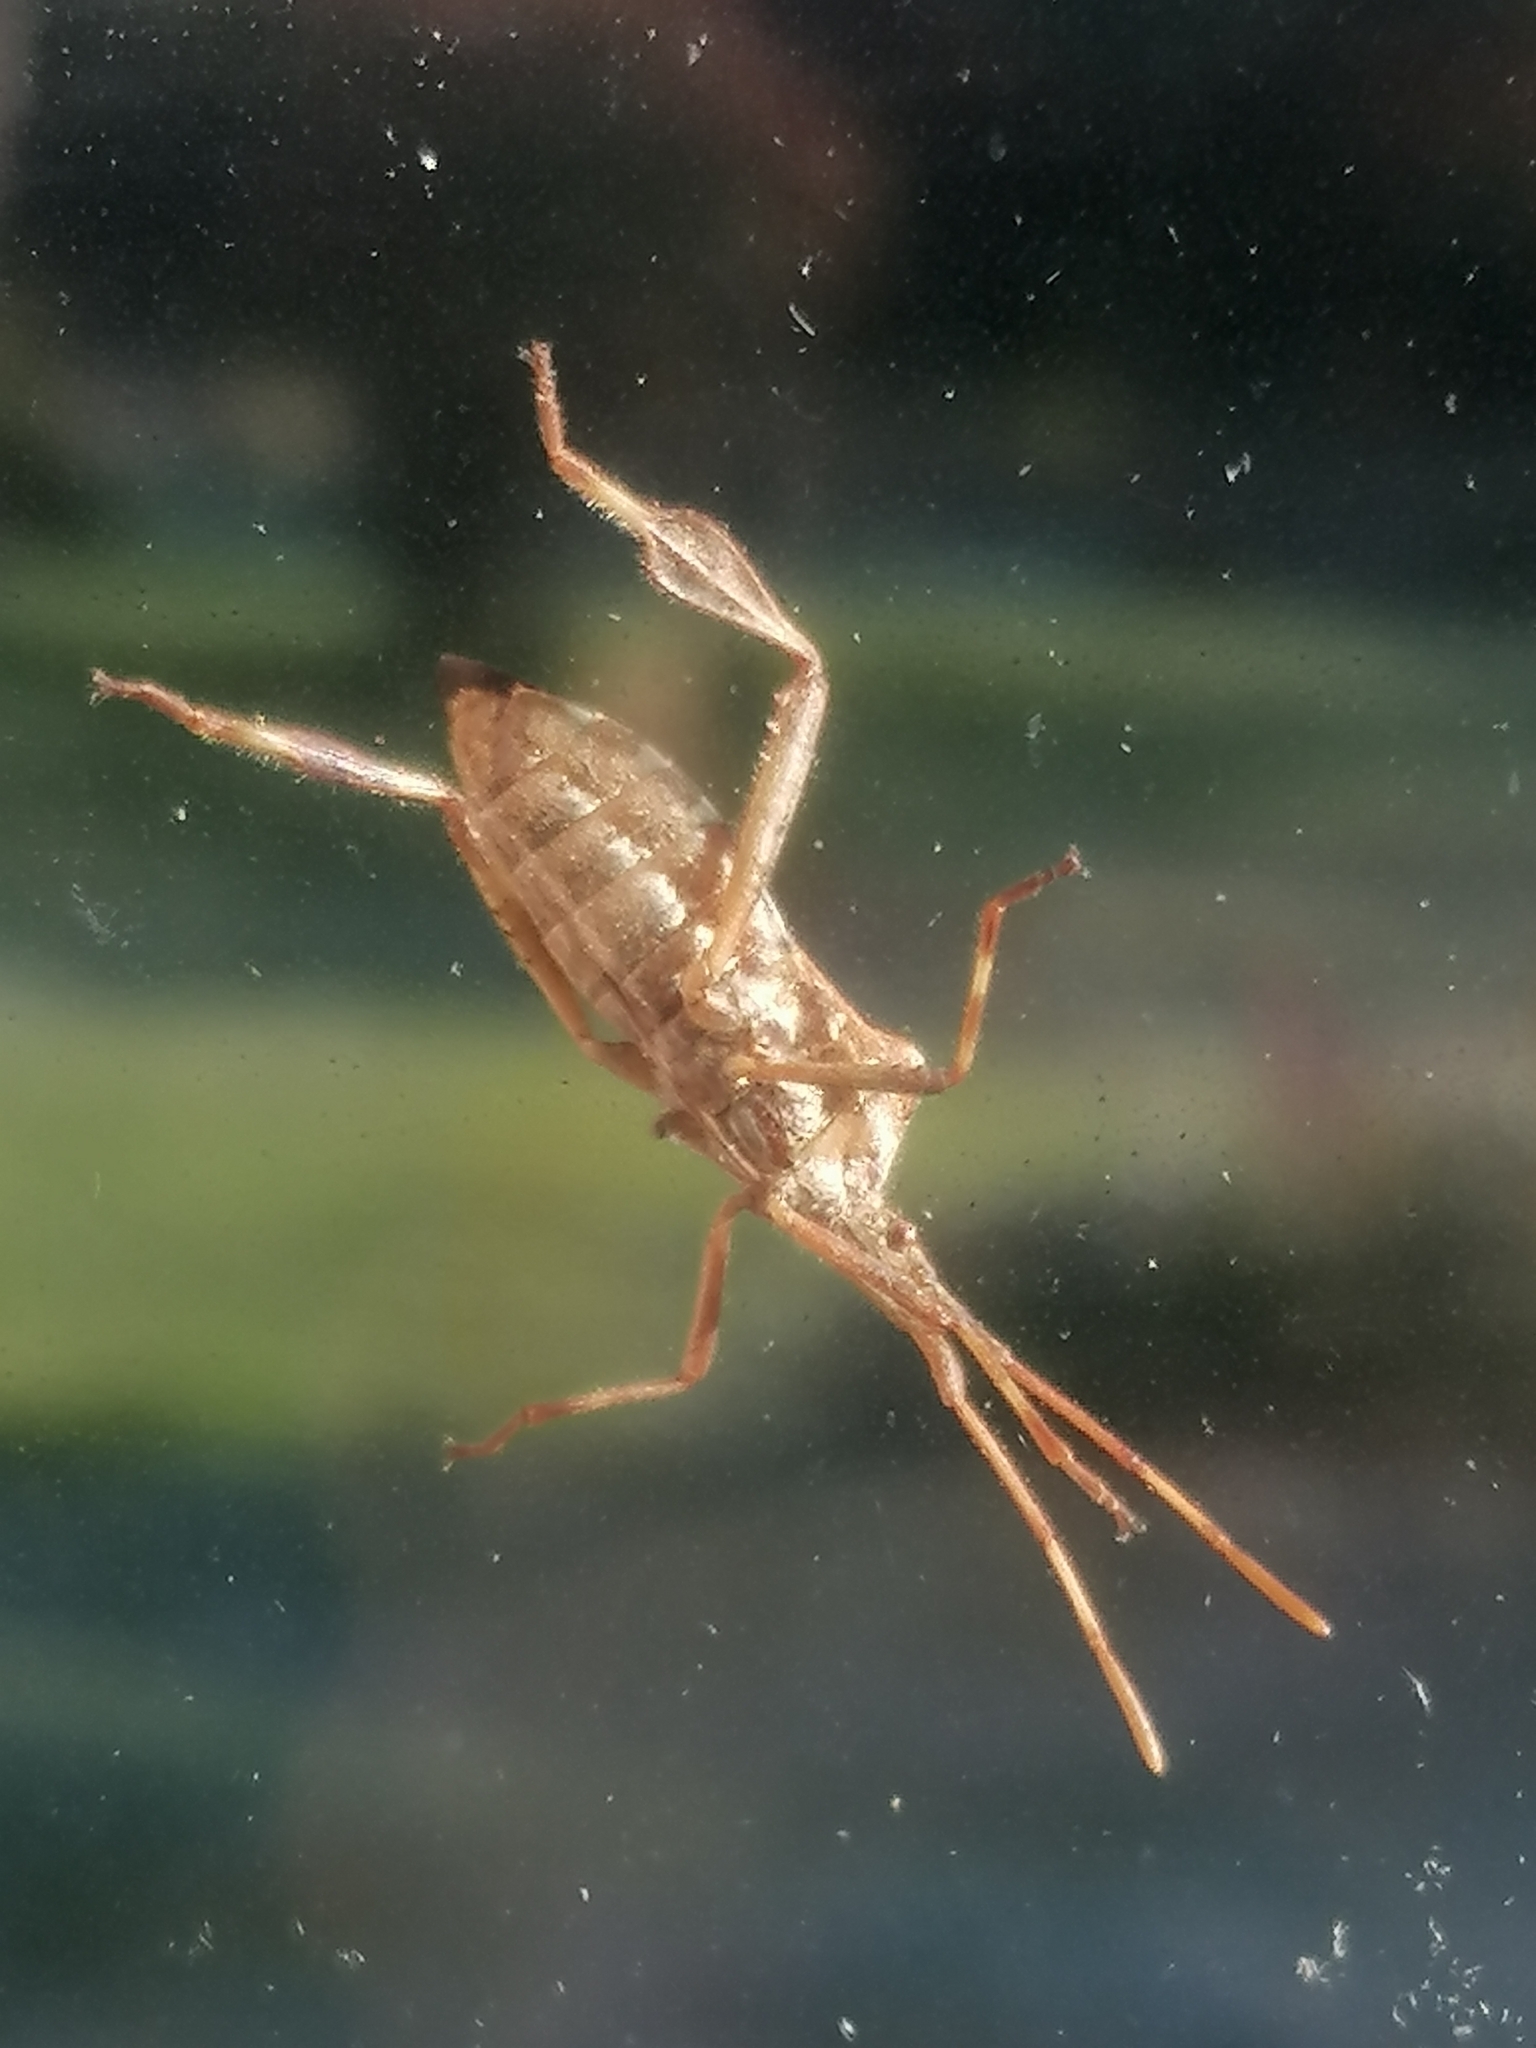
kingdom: Animalia
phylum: Arthropoda
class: Insecta
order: Hemiptera
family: Coreidae
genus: Leptoglossus
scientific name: Leptoglossus occidentalis
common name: Western conifer-seed bug
